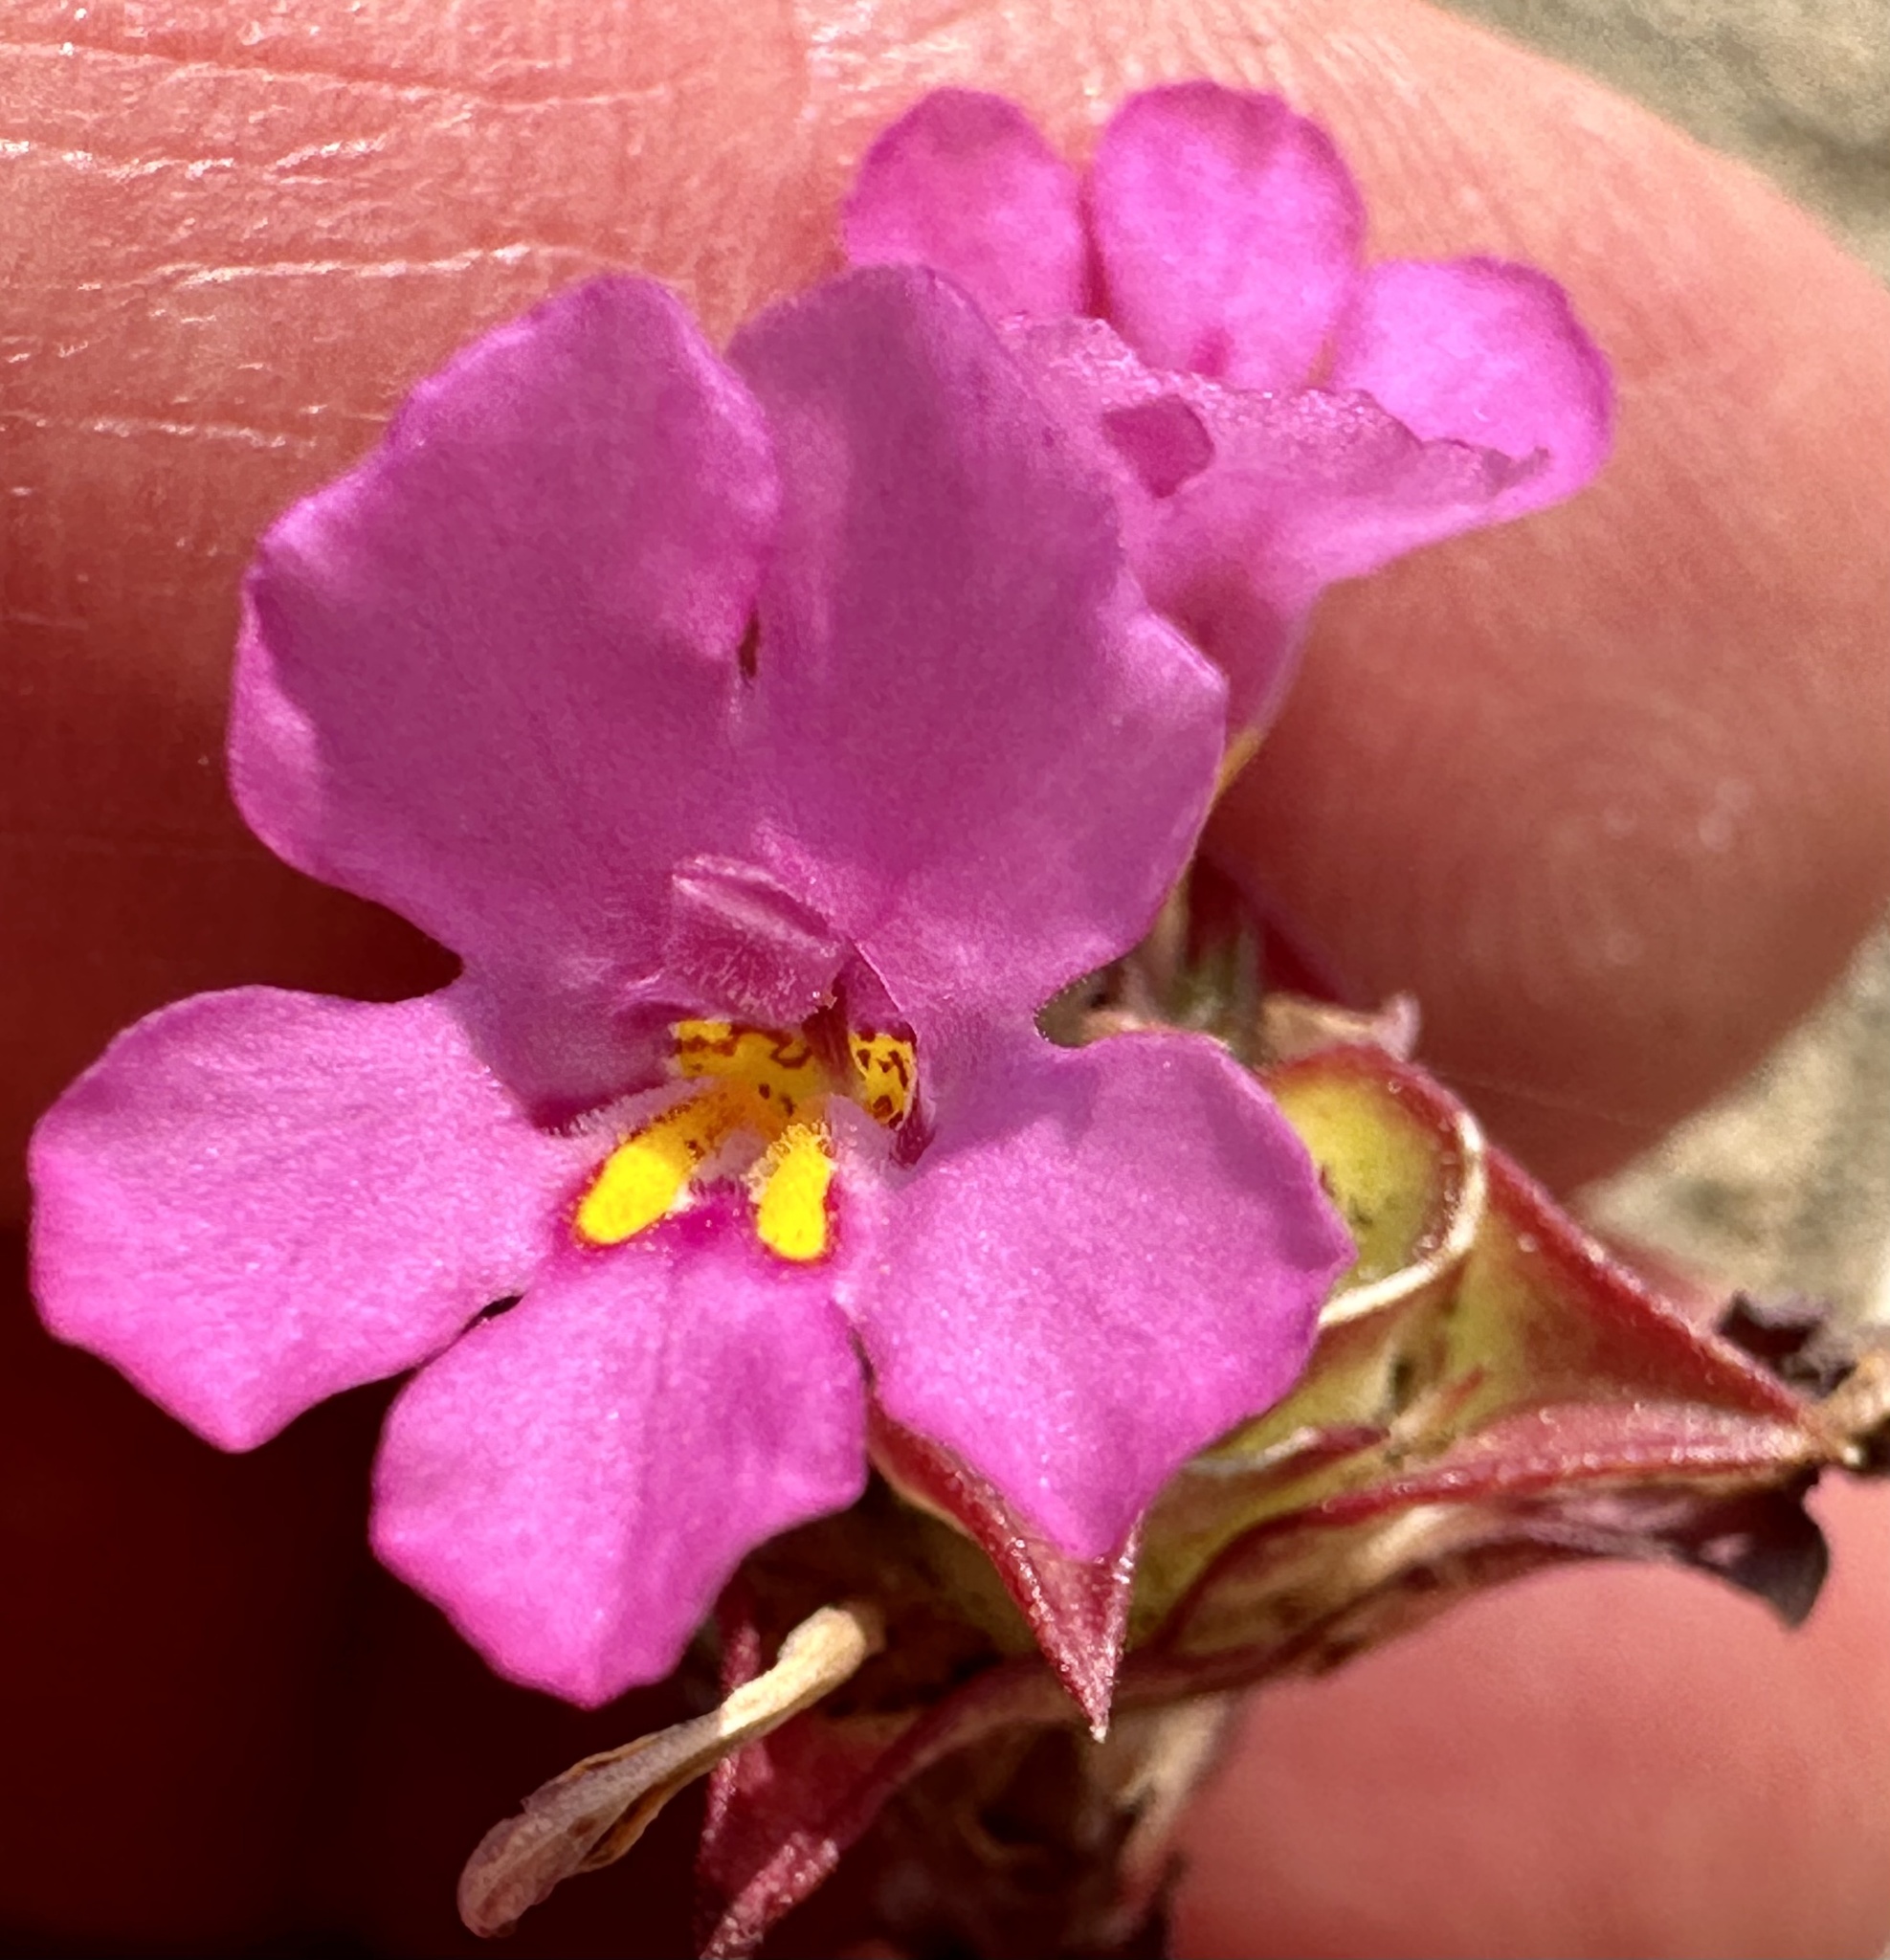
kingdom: Plantae
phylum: Tracheophyta
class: Magnoliopsida
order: Lamiales
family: Phrymaceae
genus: Diplacus
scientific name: Diplacus deschutesensis
